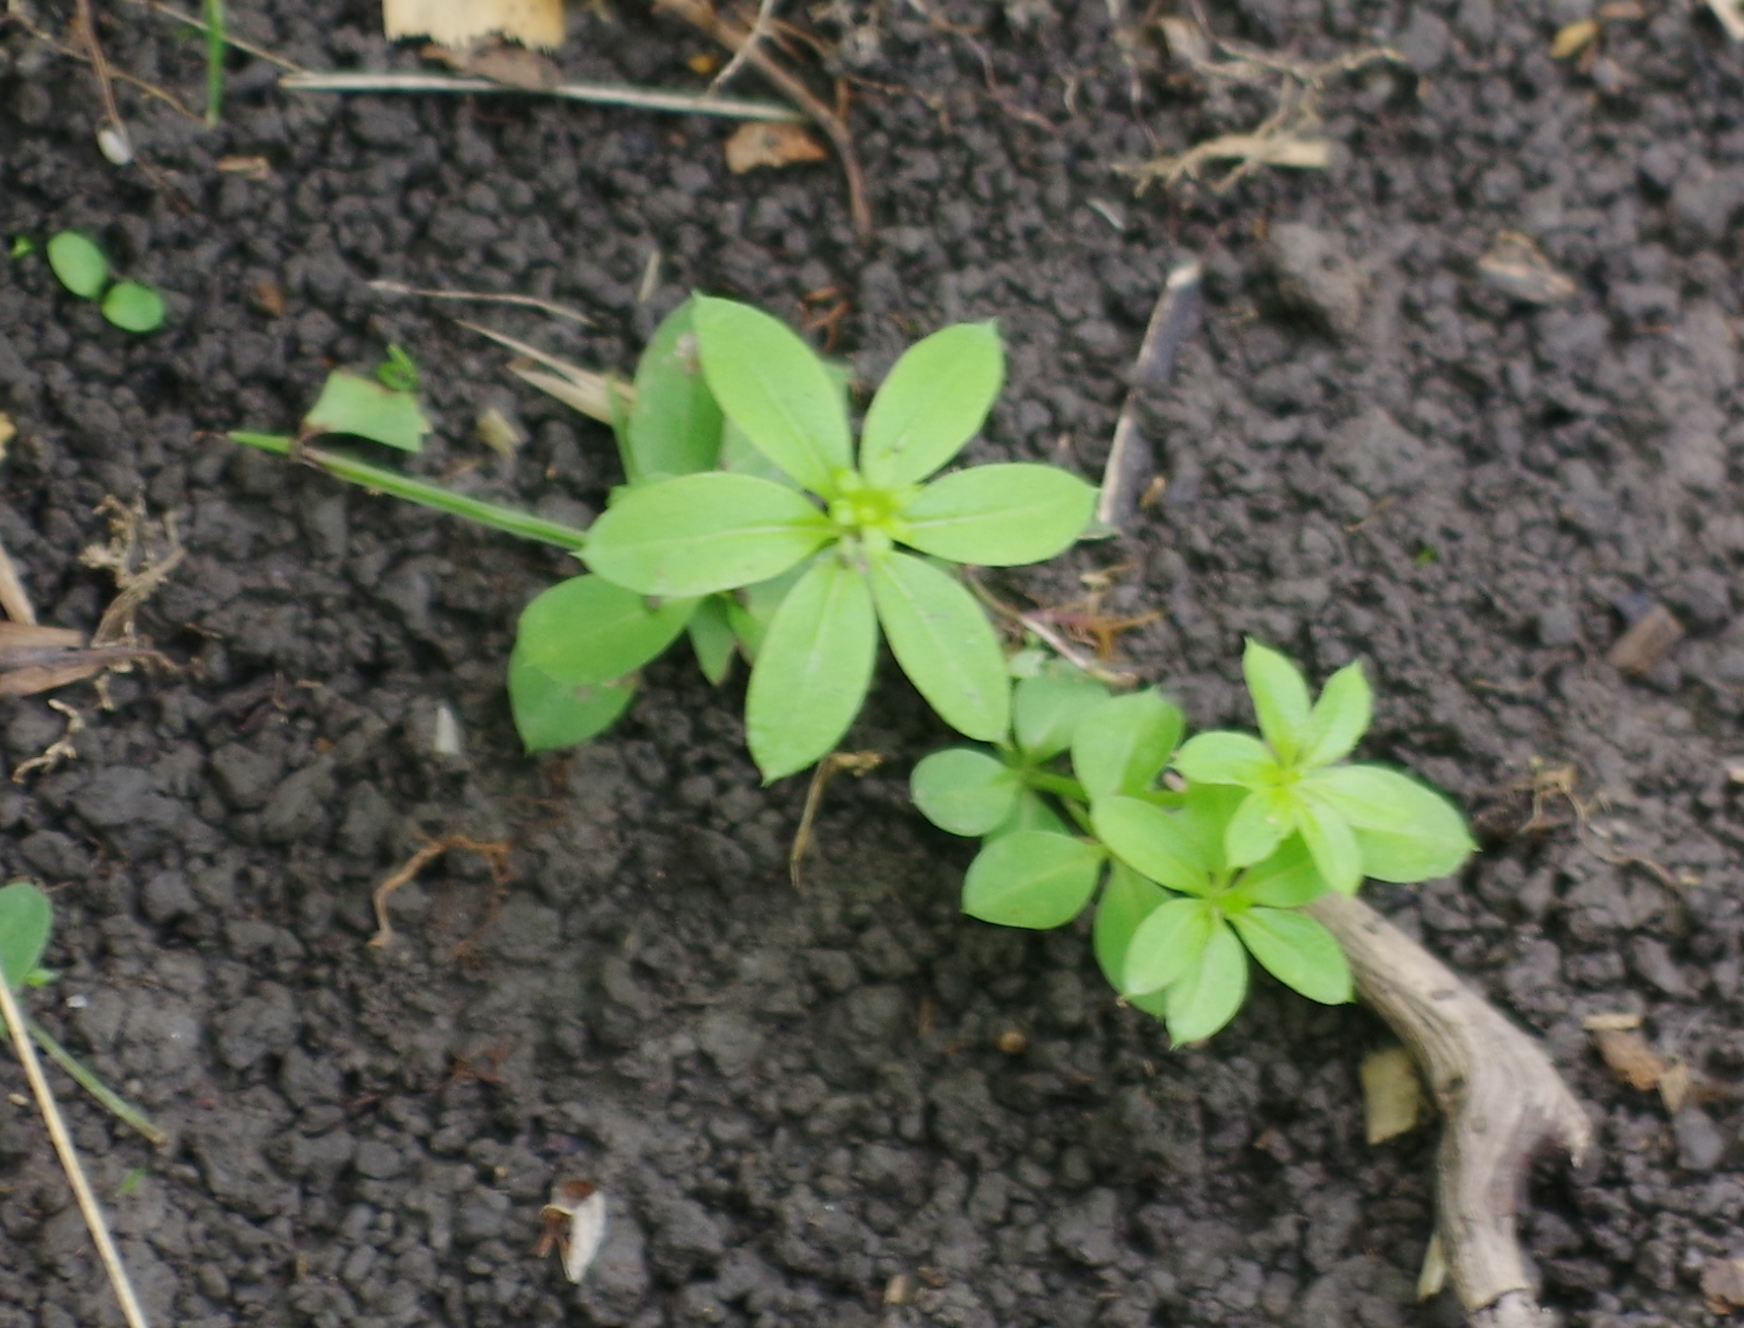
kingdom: Plantae
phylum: Tracheophyta
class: Magnoliopsida
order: Gentianales
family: Rubiaceae
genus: Galium
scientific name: Galium triflorum
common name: Fragrant bedstraw
